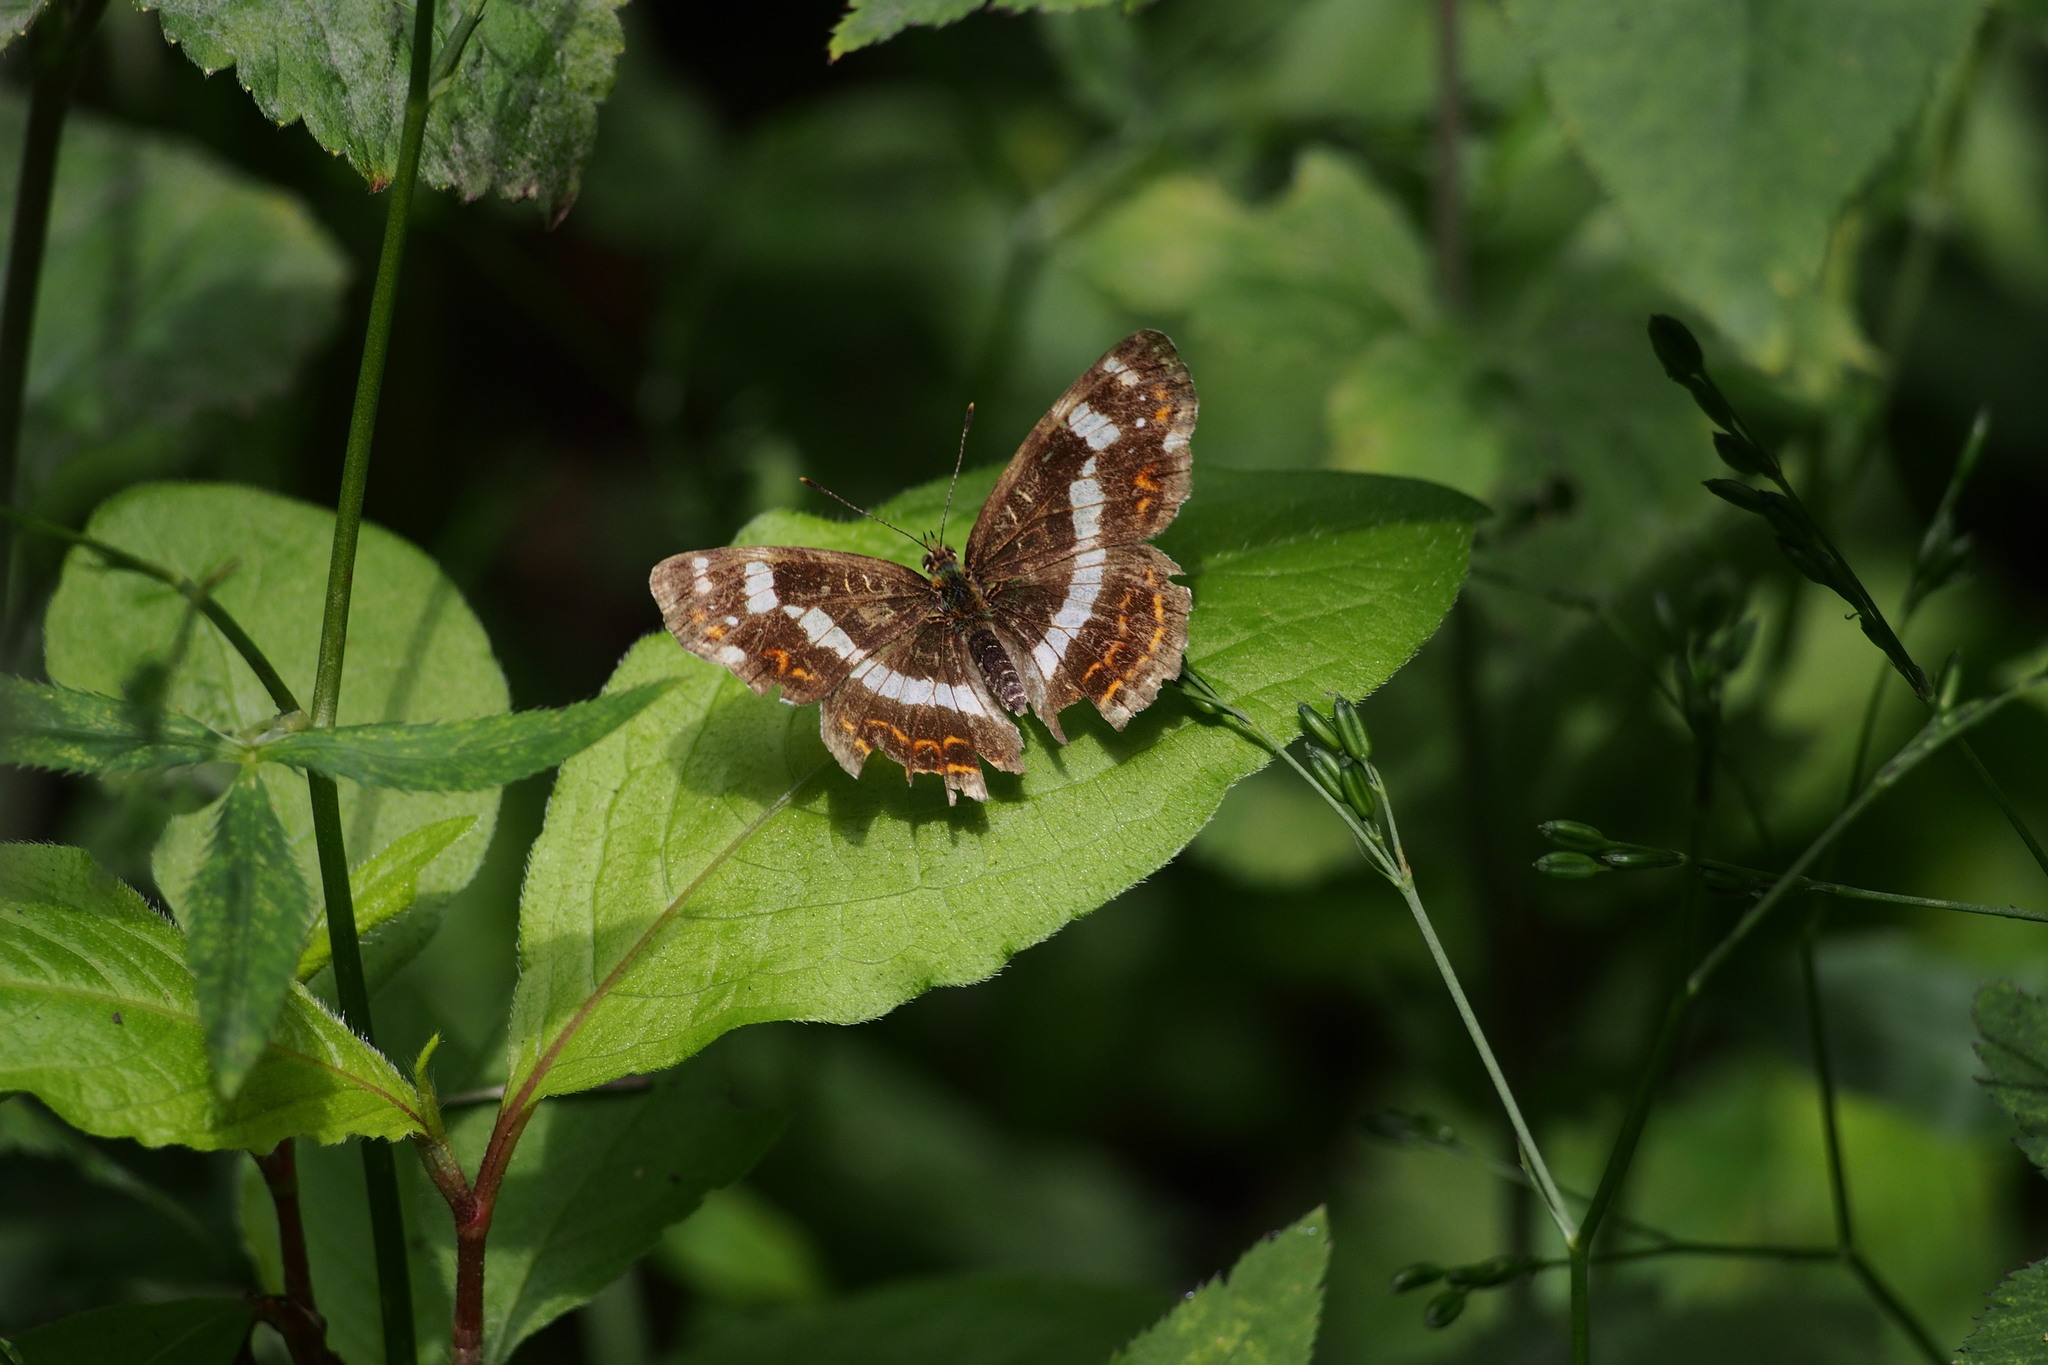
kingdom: Animalia
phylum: Arthropoda
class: Insecta
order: Lepidoptera
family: Nymphalidae
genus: Araschnia
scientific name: Araschnia burejana
